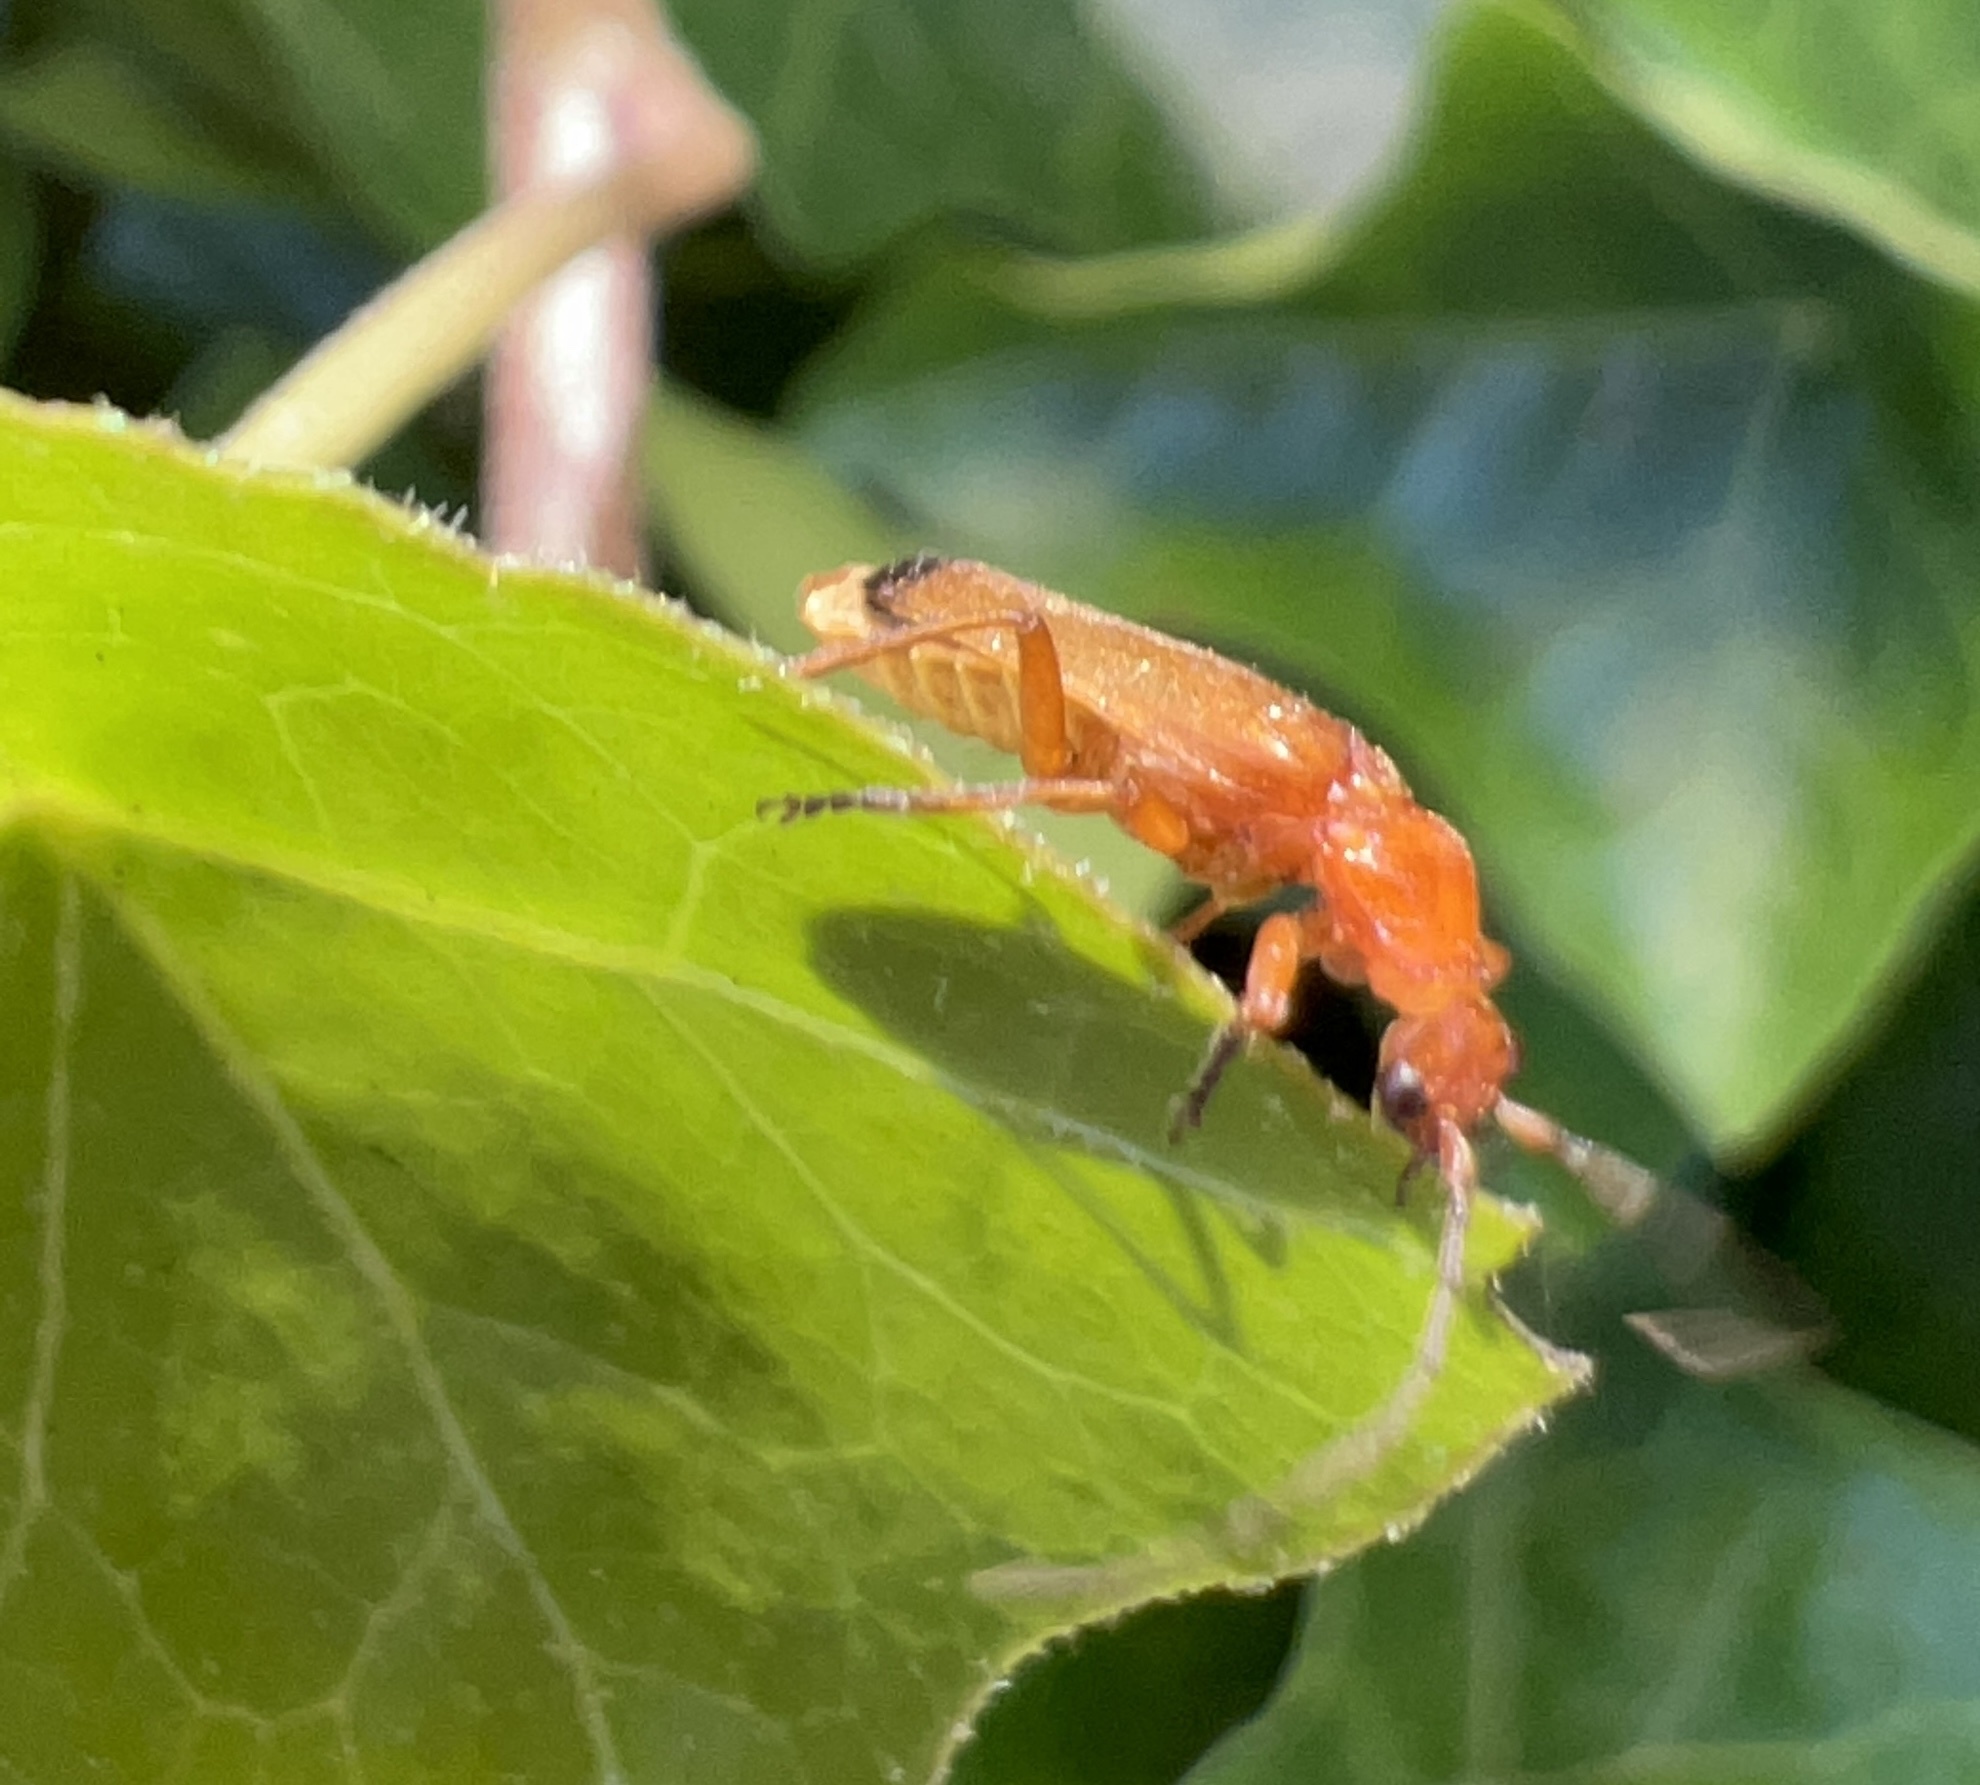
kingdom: Animalia
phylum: Arthropoda
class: Insecta
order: Coleoptera
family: Cantharidae
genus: Rhagonycha
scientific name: Rhagonycha fulva
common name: Common red soldier beetle
